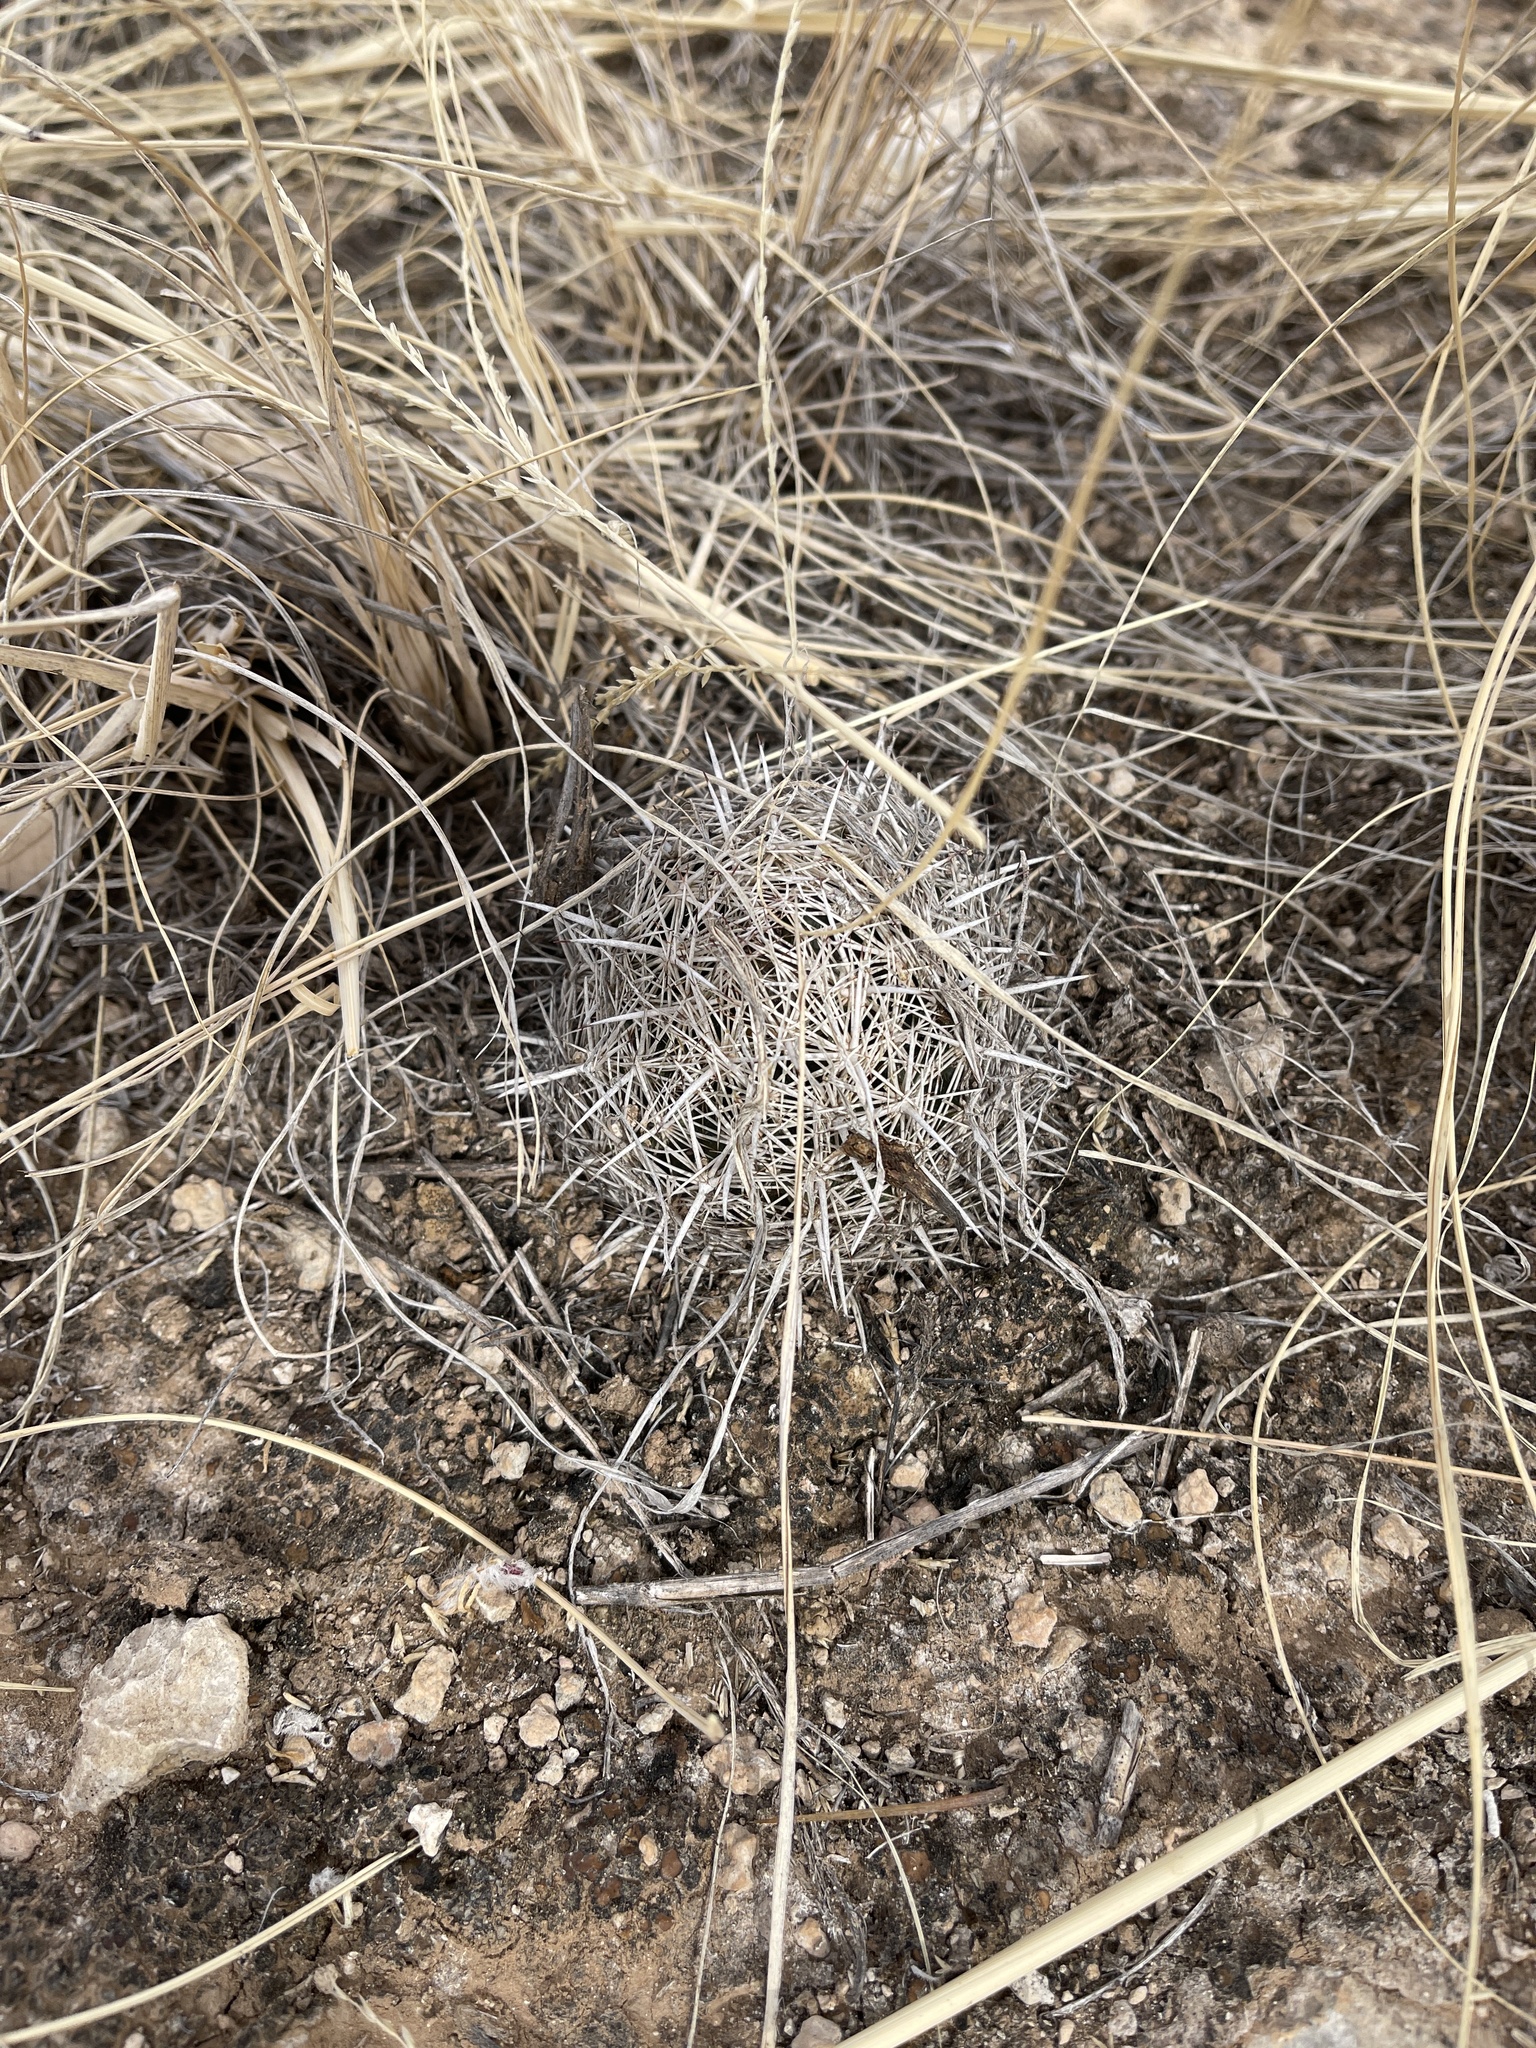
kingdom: Plantae
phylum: Tracheophyta
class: Magnoliopsida
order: Caryophyllales
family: Cactaceae
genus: Coryphantha
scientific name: Coryphantha echinus
